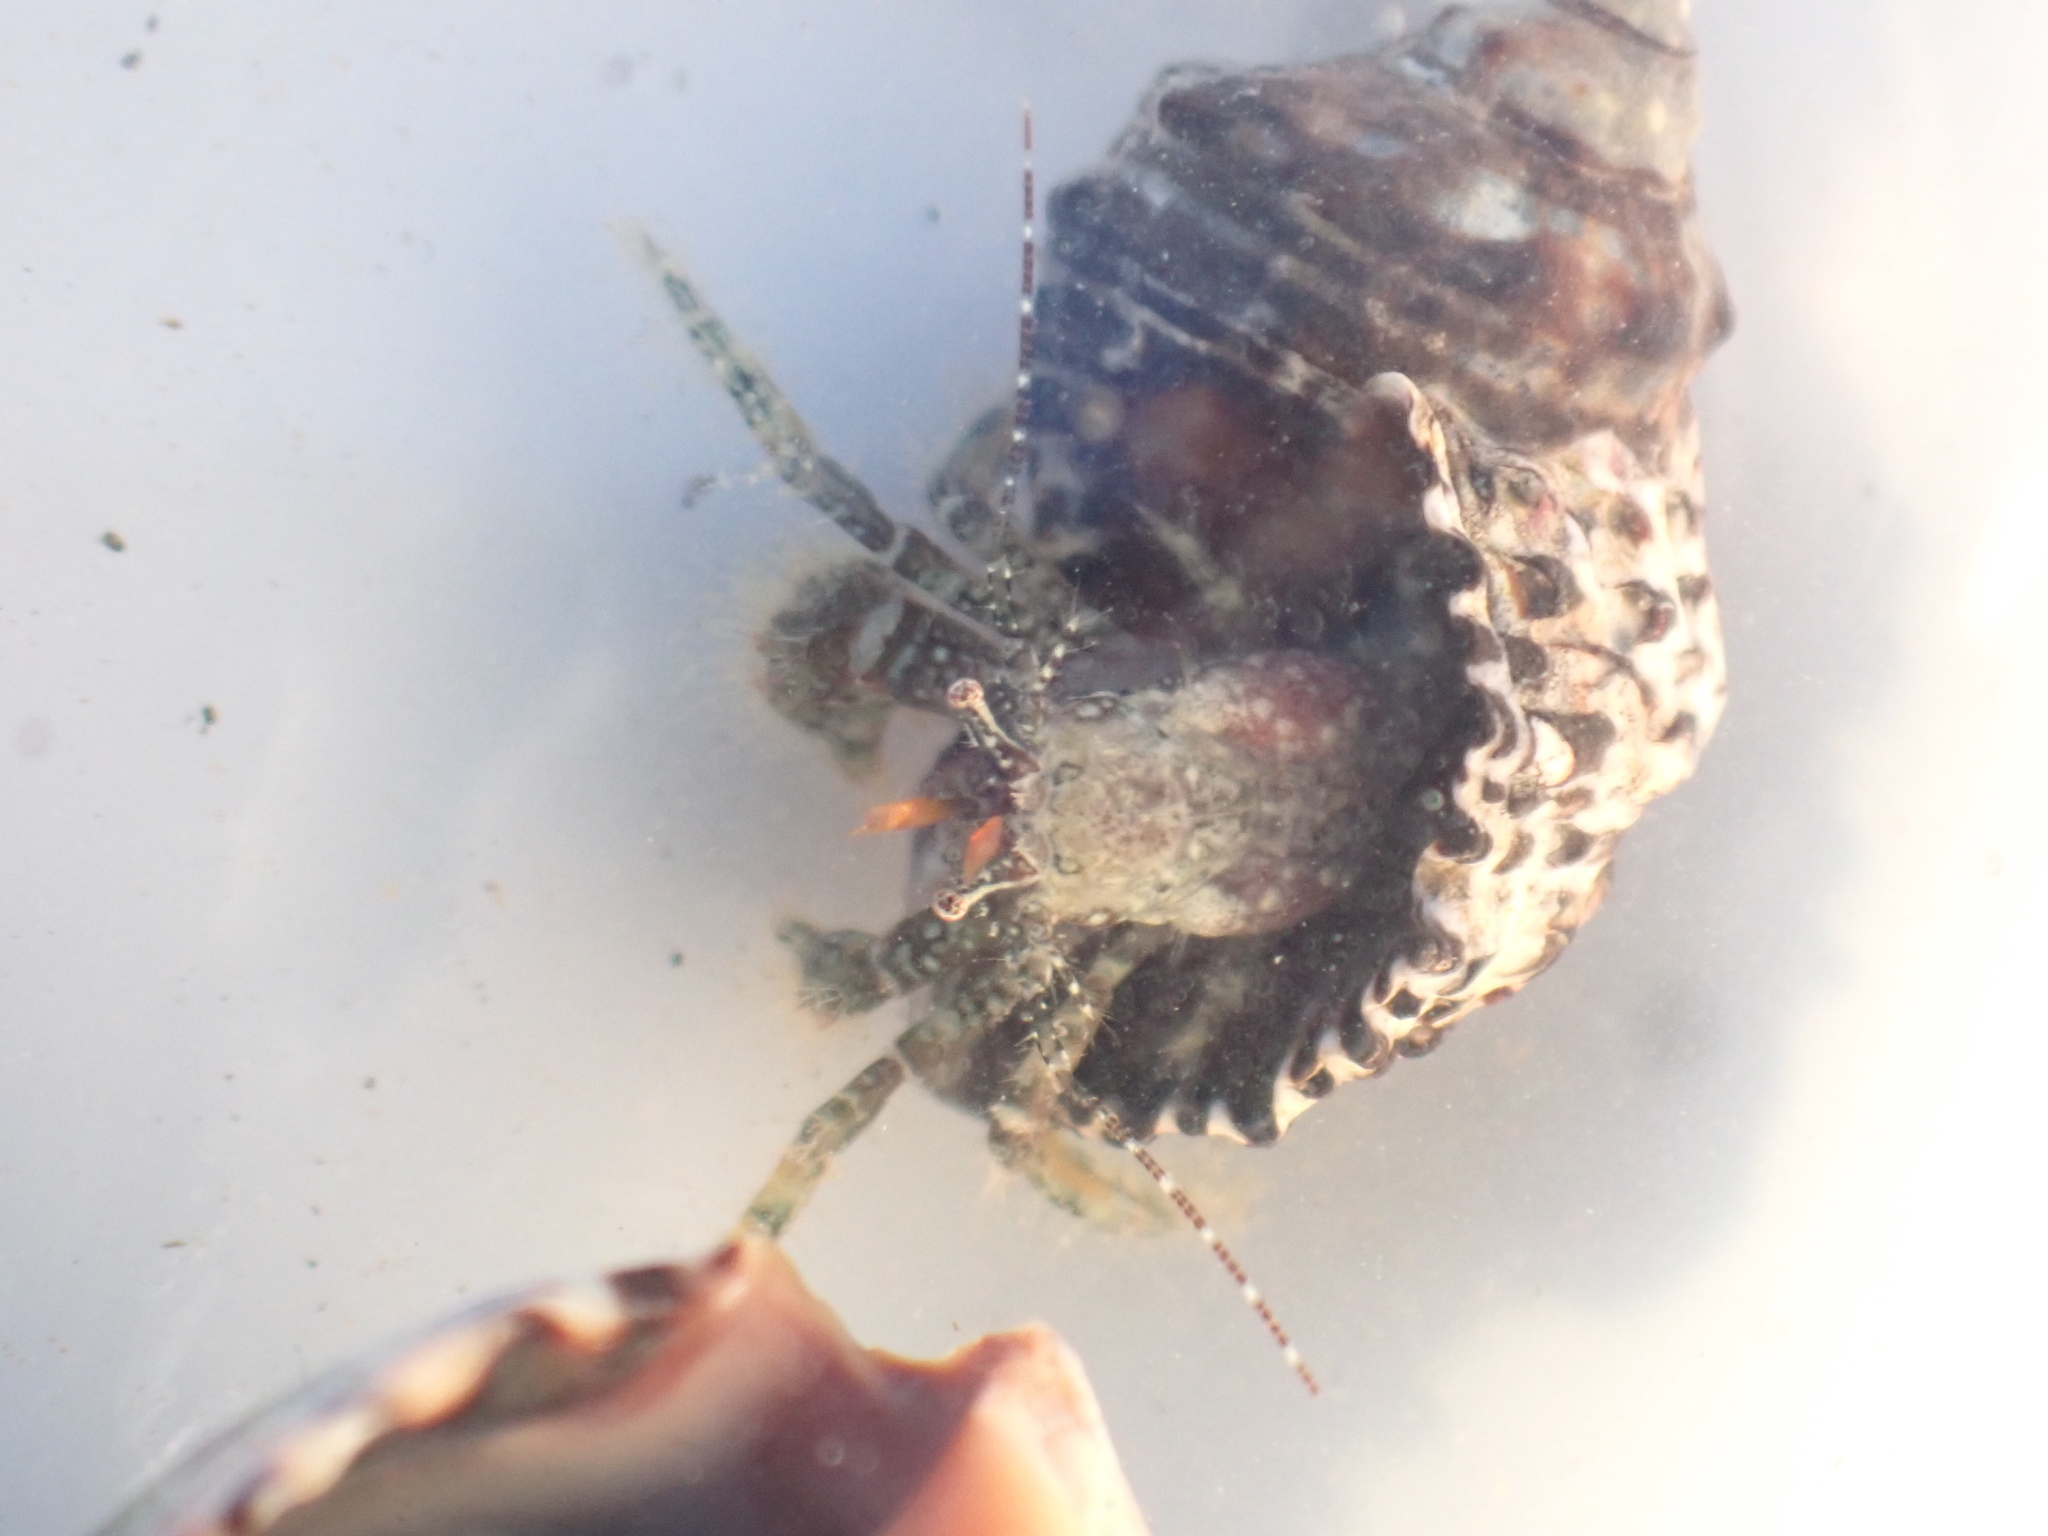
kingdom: Animalia
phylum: Arthropoda
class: Malacostraca
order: Decapoda
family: Paguridae
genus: Pagurus
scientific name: Pagurus traversi
